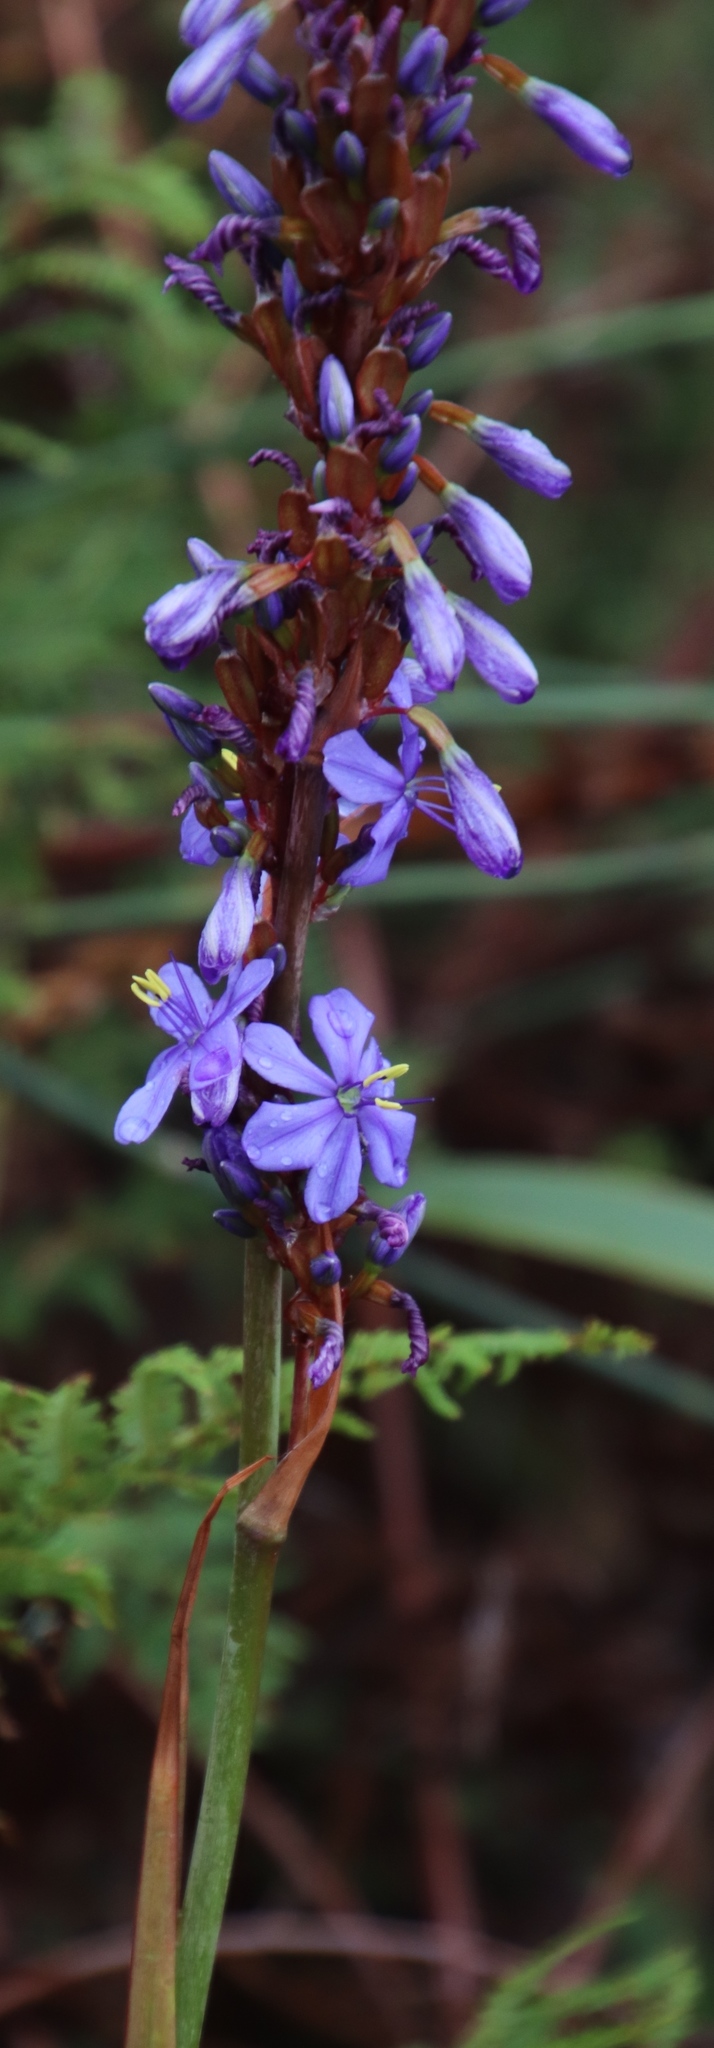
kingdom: Plantae
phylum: Tracheophyta
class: Liliopsida
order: Asparagales
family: Iridaceae
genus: Aristea
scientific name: Aristea capitata
